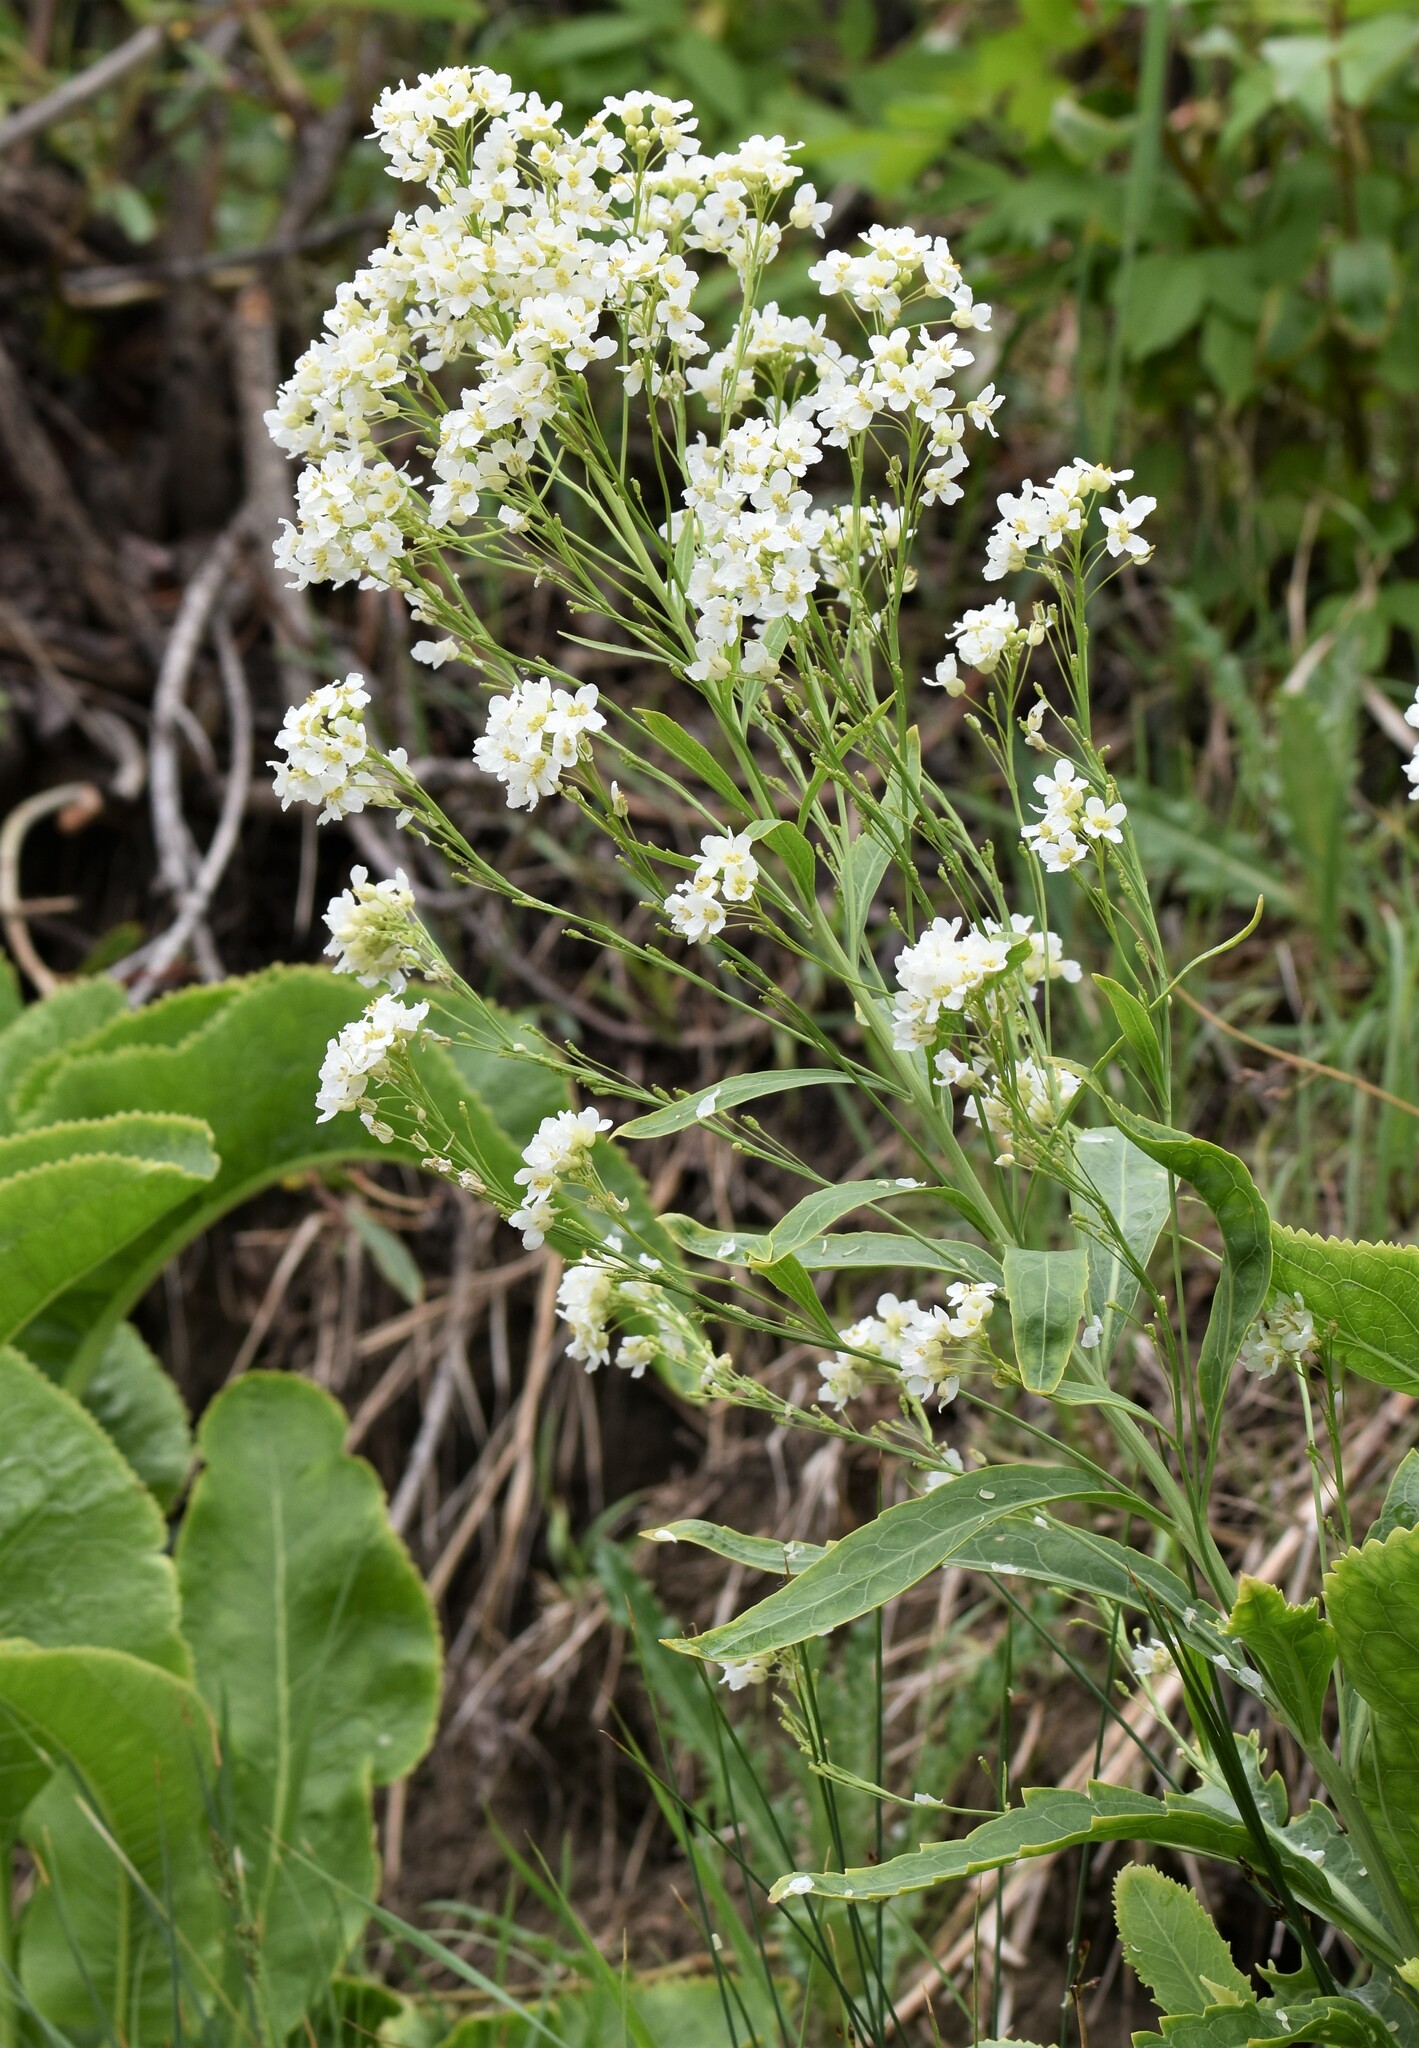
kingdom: Plantae
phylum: Tracheophyta
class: Magnoliopsida
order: Brassicales
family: Brassicaceae
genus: Armoracia
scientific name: Armoracia rusticana
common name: Horseradish
